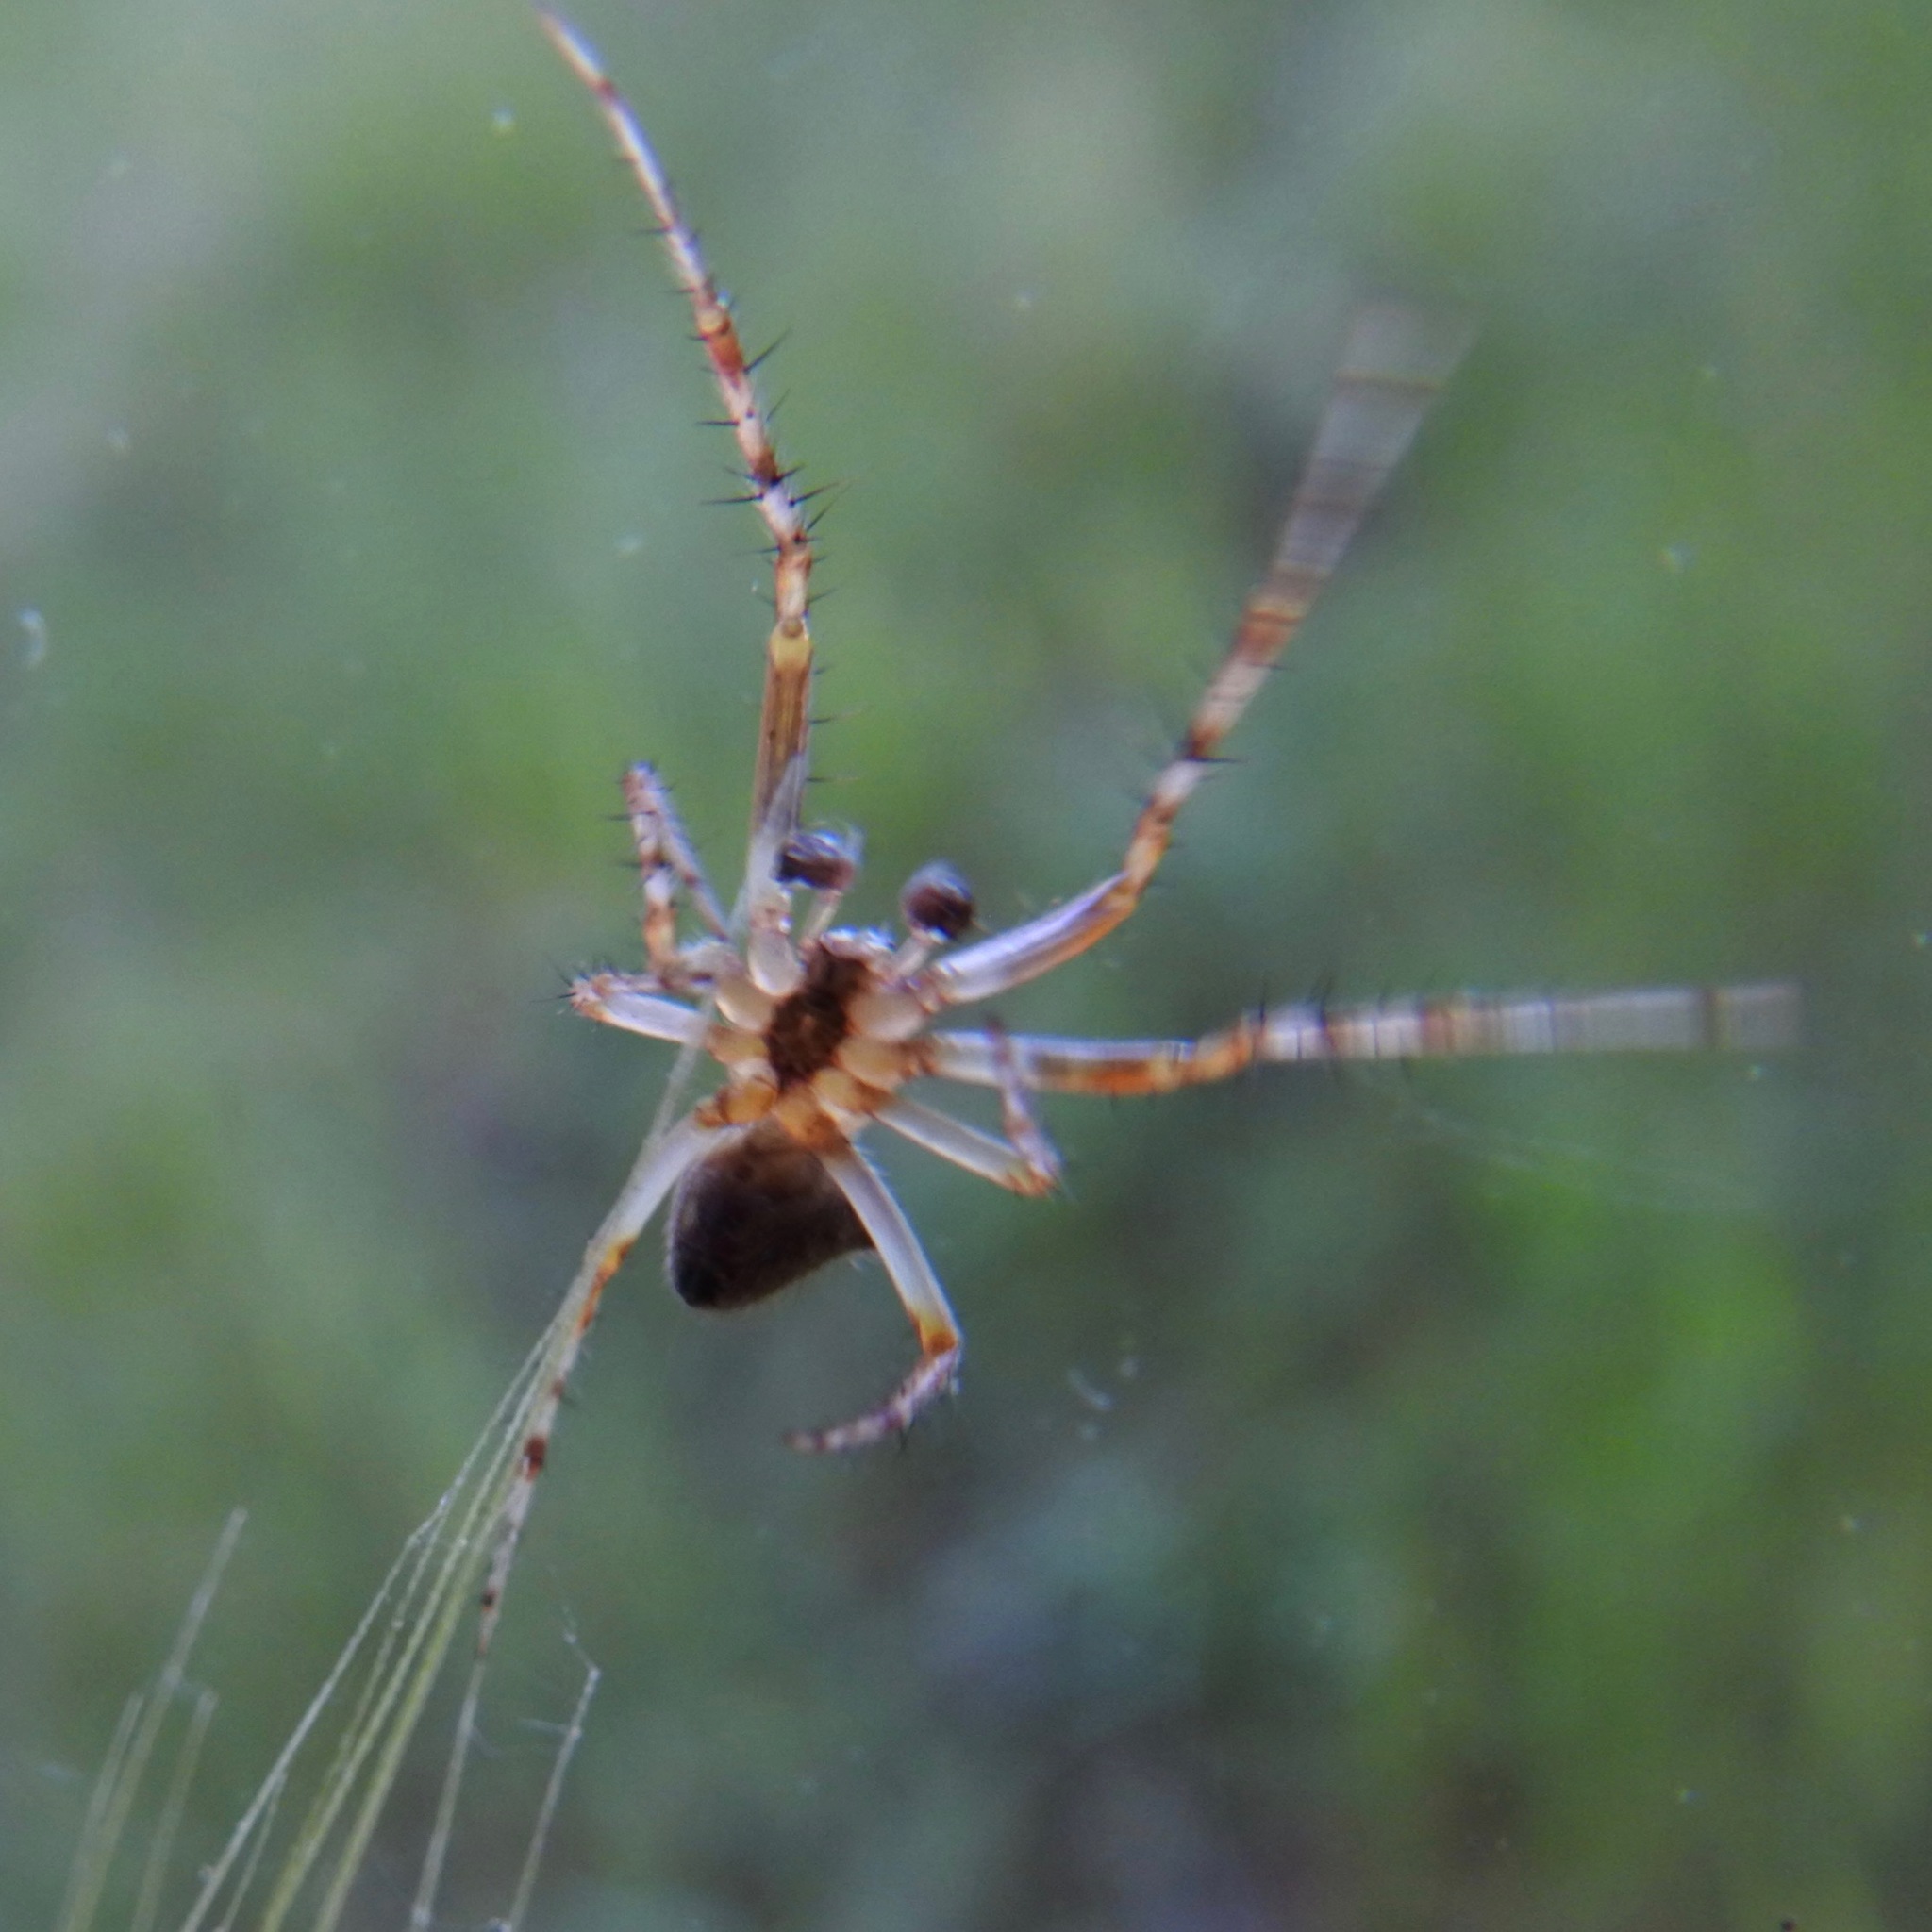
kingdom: Animalia
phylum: Arthropoda
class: Arachnida
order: Araneae
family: Araneidae
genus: Araneus
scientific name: Araneus bispinosus
